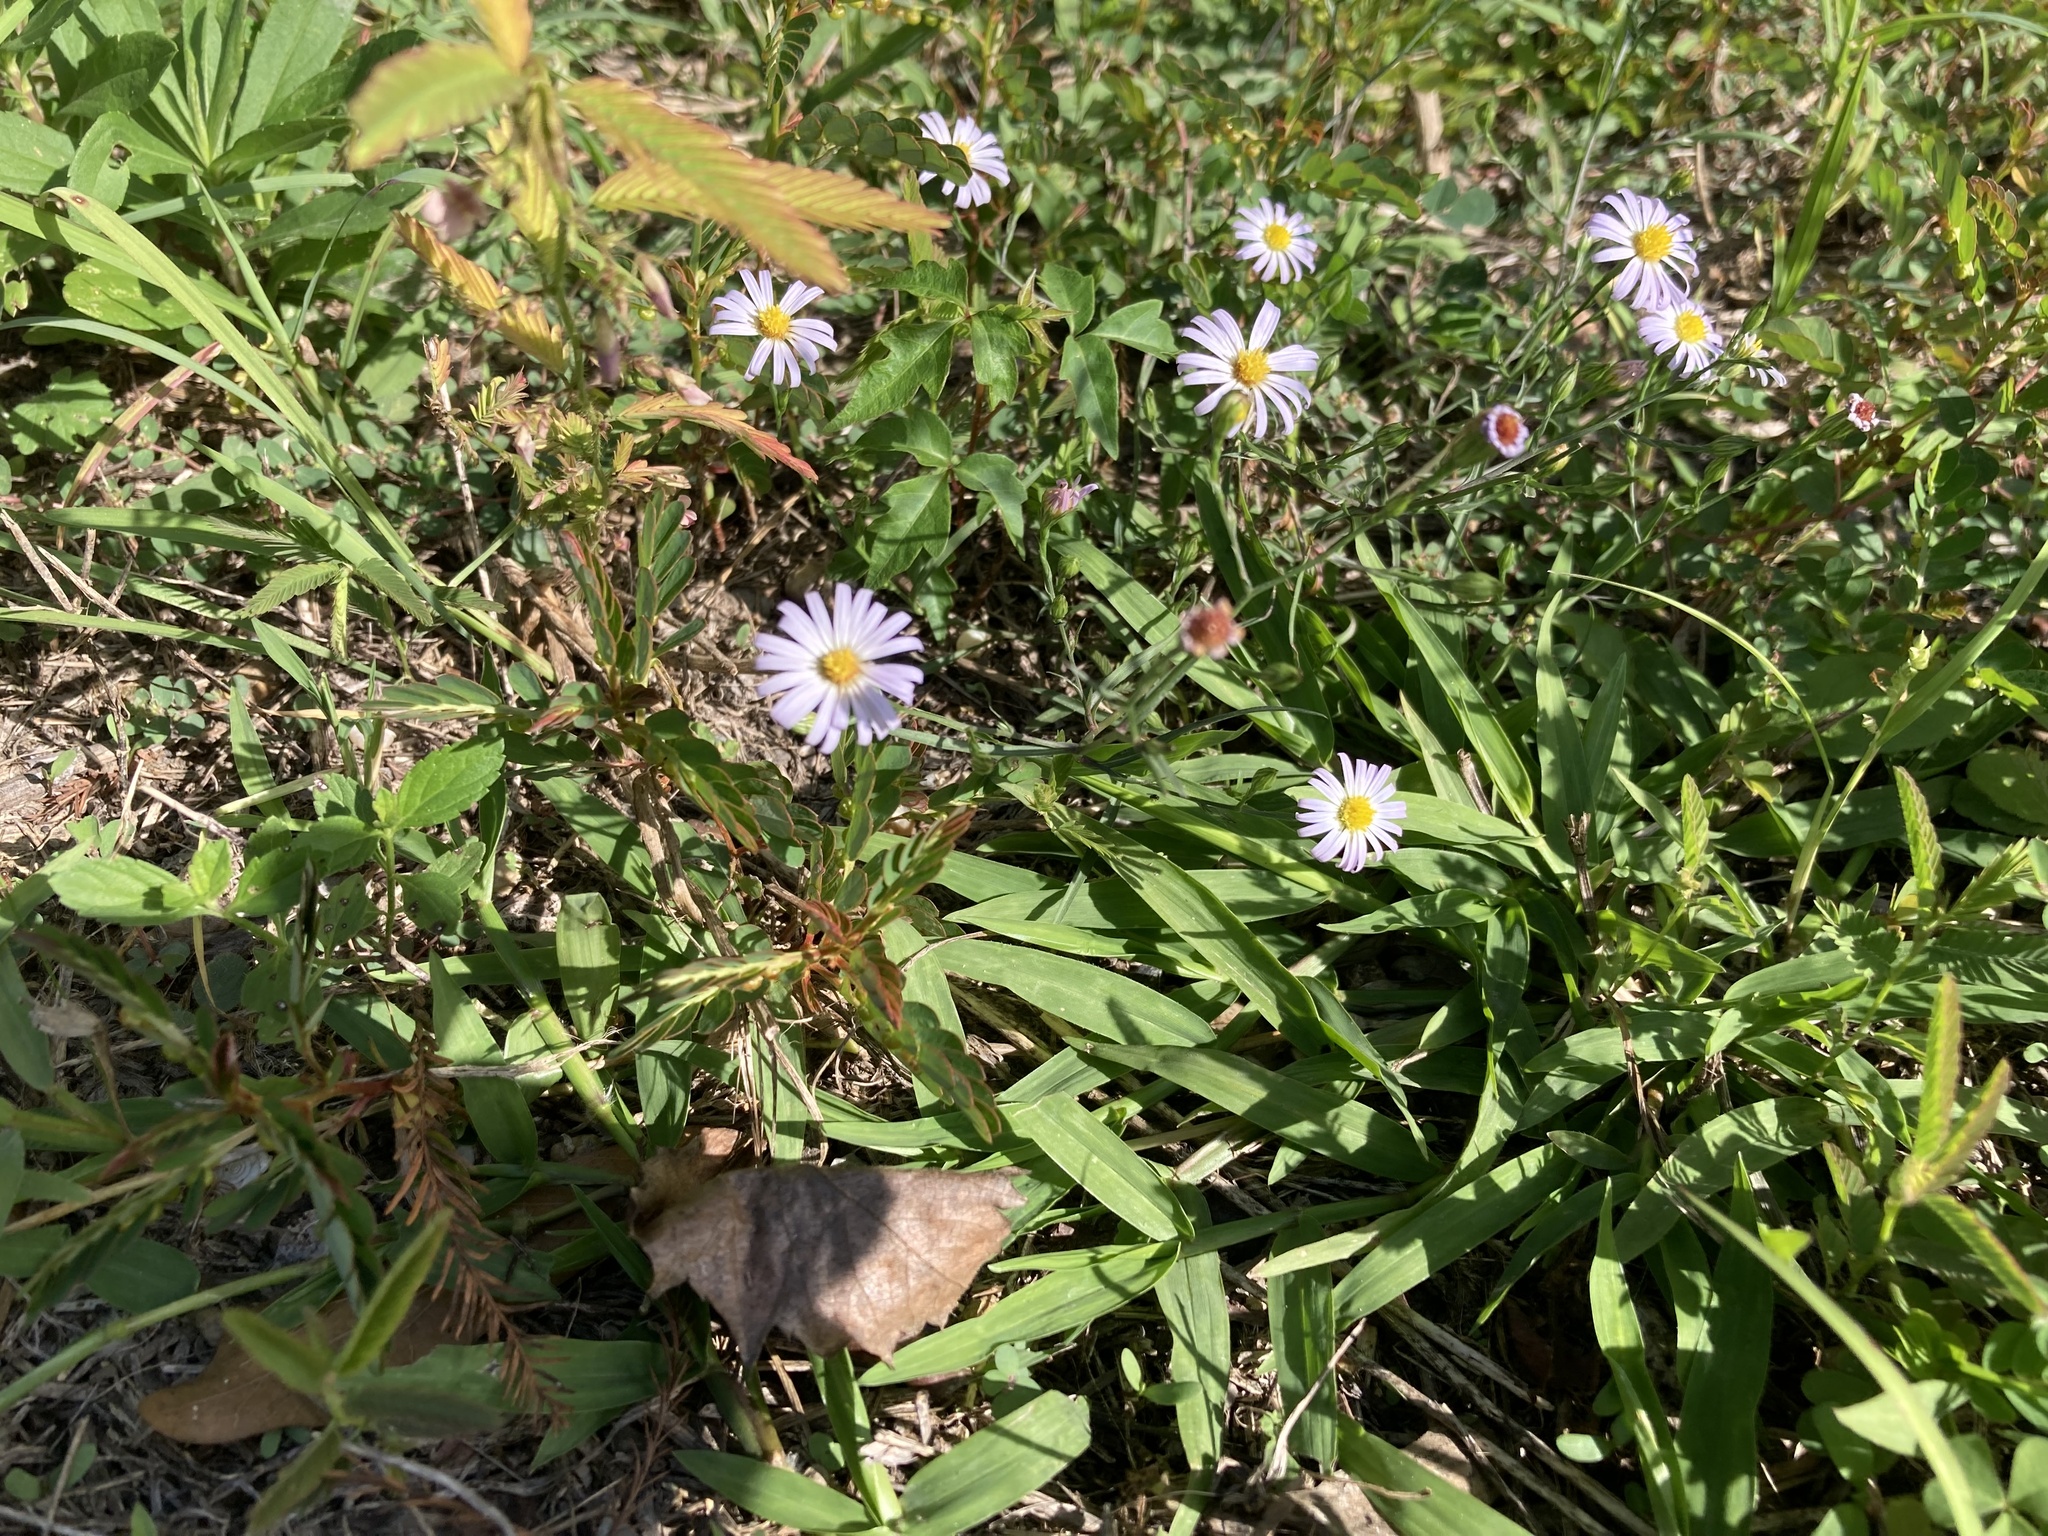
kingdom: Plantae
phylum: Tracheophyta
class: Magnoliopsida
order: Asterales
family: Asteraceae
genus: Symphyotrichum
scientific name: Symphyotrichum divaricatum
